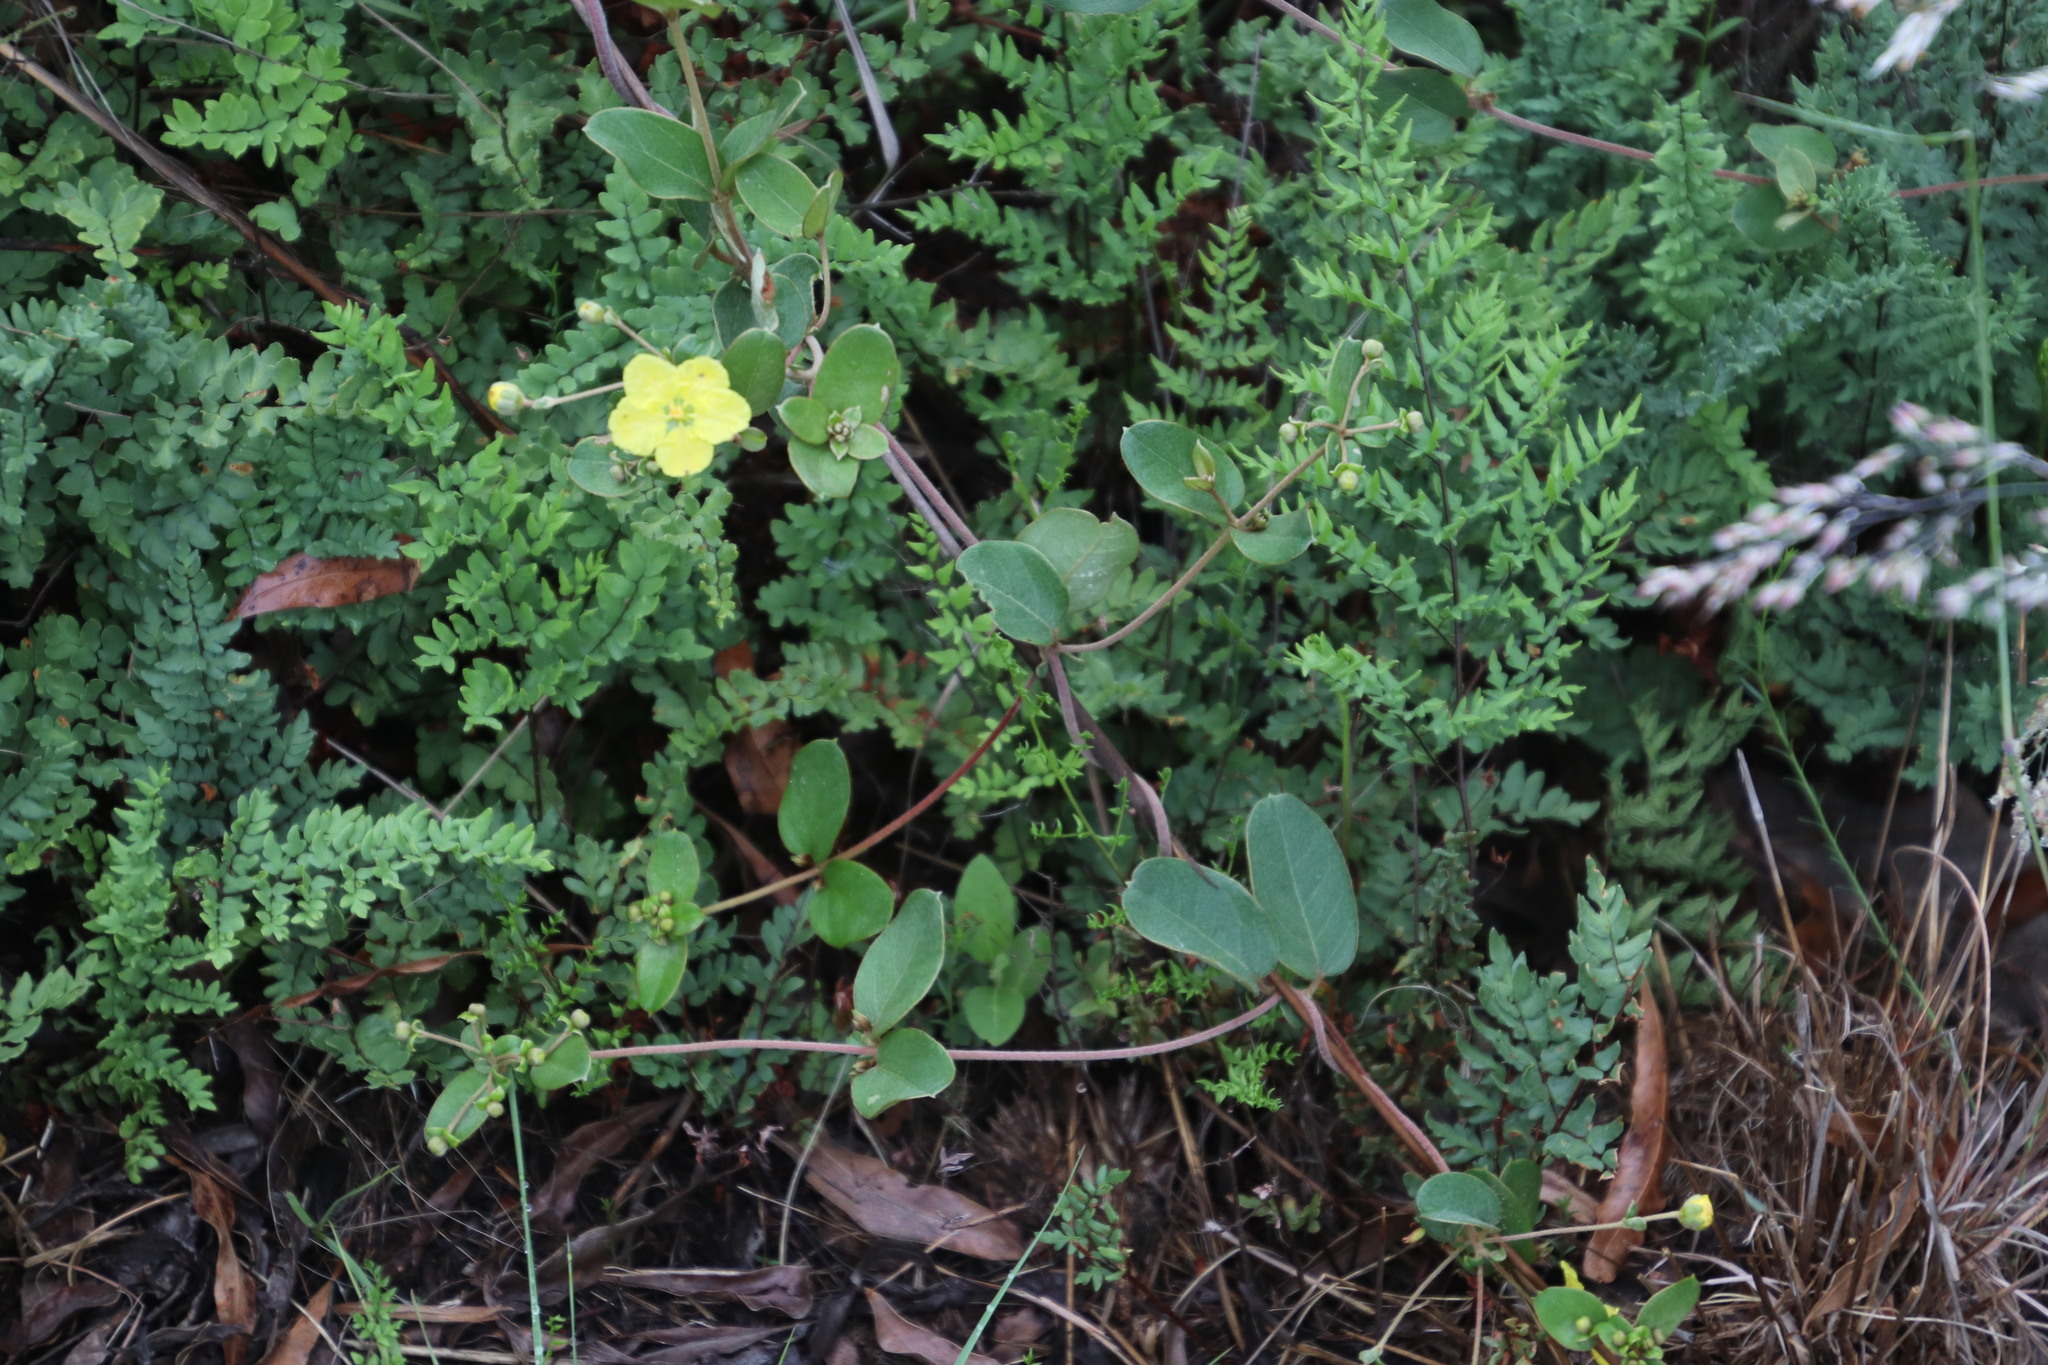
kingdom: Plantae
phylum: Tracheophyta
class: Magnoliopsida
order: Malpighiales
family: Malpighiaceae
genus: Sphedamnocarpus
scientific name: Sphedamnocarpus pruriens
